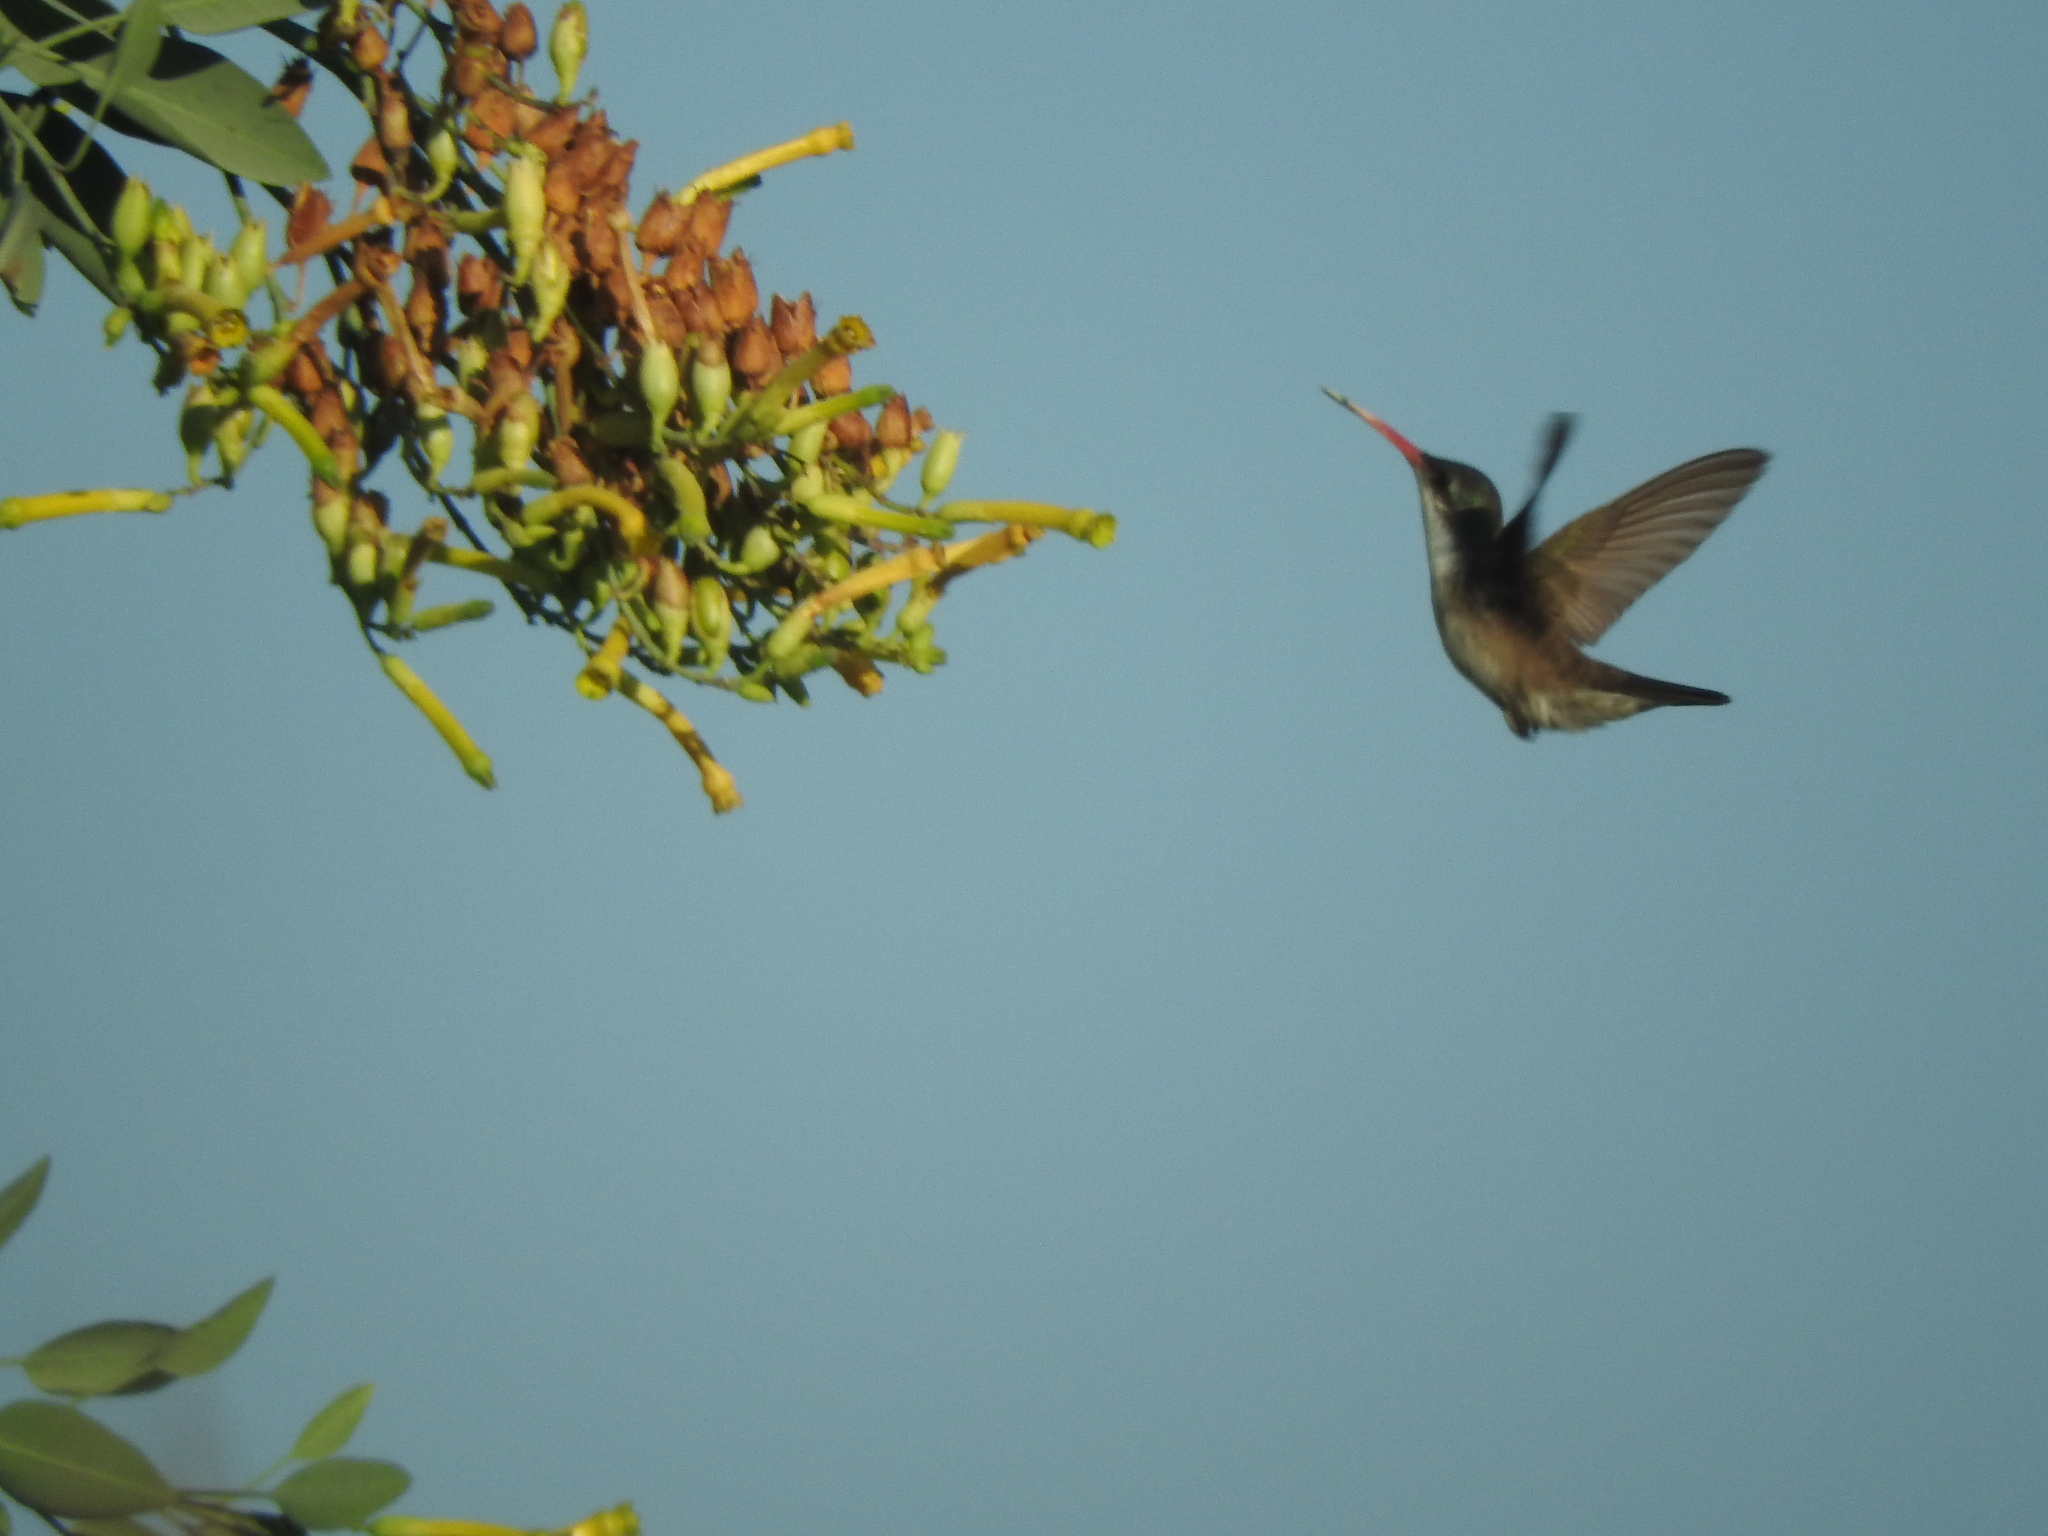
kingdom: Animalia
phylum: Chordata
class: Aves
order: Apodiformes
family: Trochilidae
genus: Leucolia
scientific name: Leucolia violiceps
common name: Violet-crowned hummingbird
